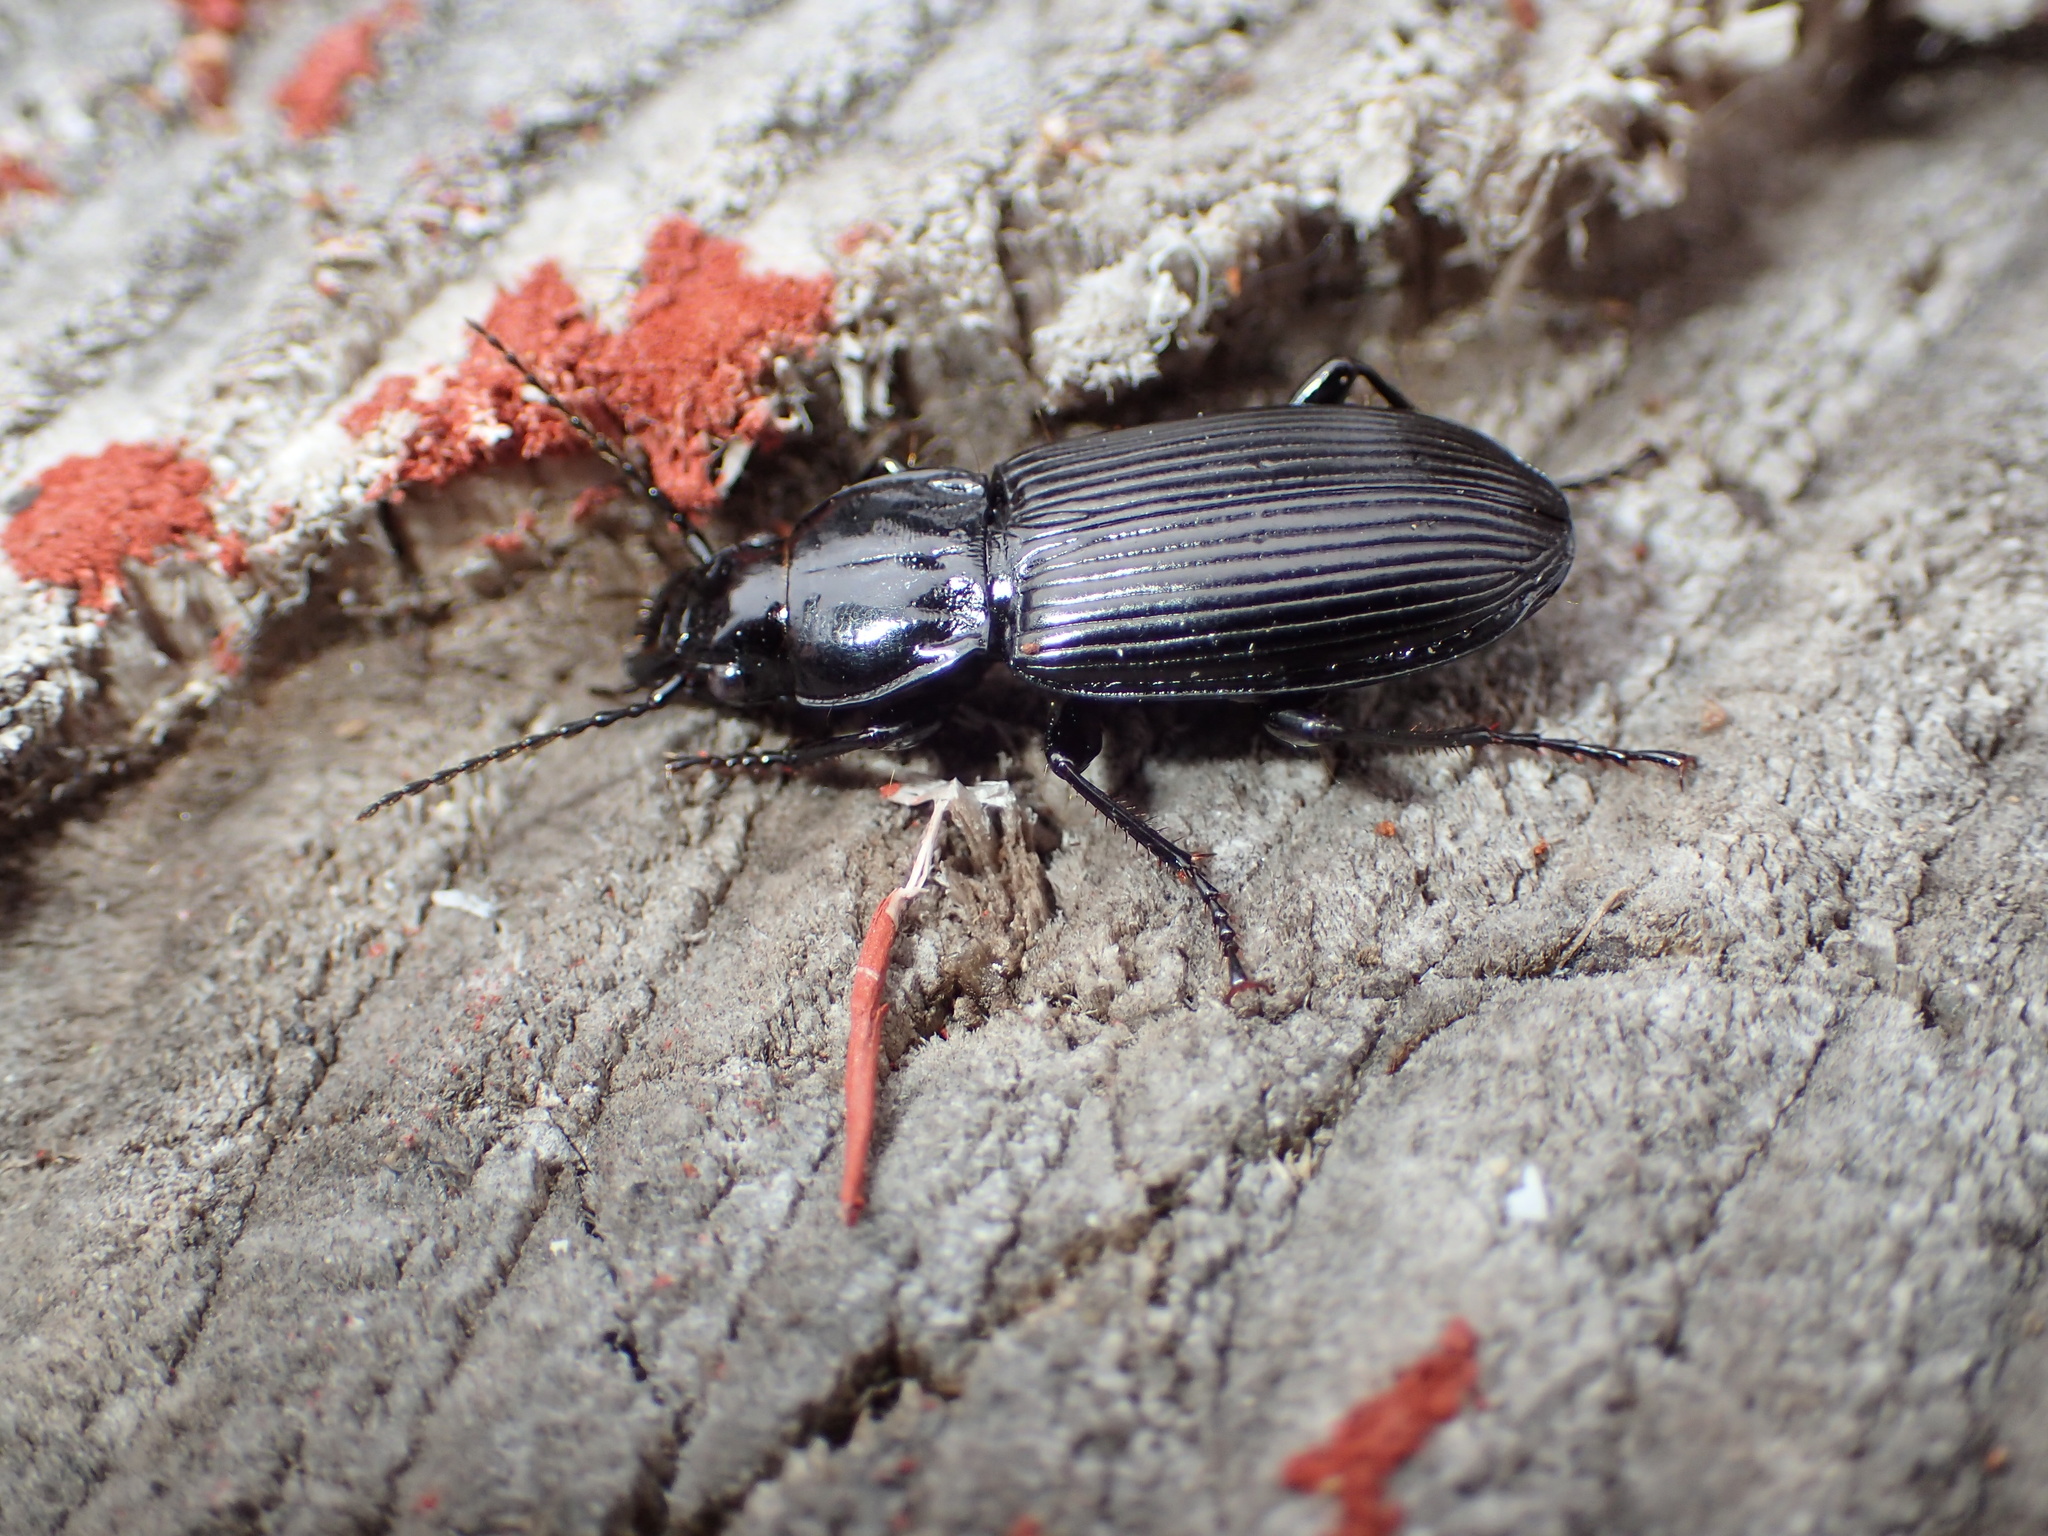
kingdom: Animalia
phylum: Arthropoda
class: Insecta
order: Coleoptera
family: Carabidae
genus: Pterostichus
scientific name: Pterostichus melanarius
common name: European dark harp ground beetle
